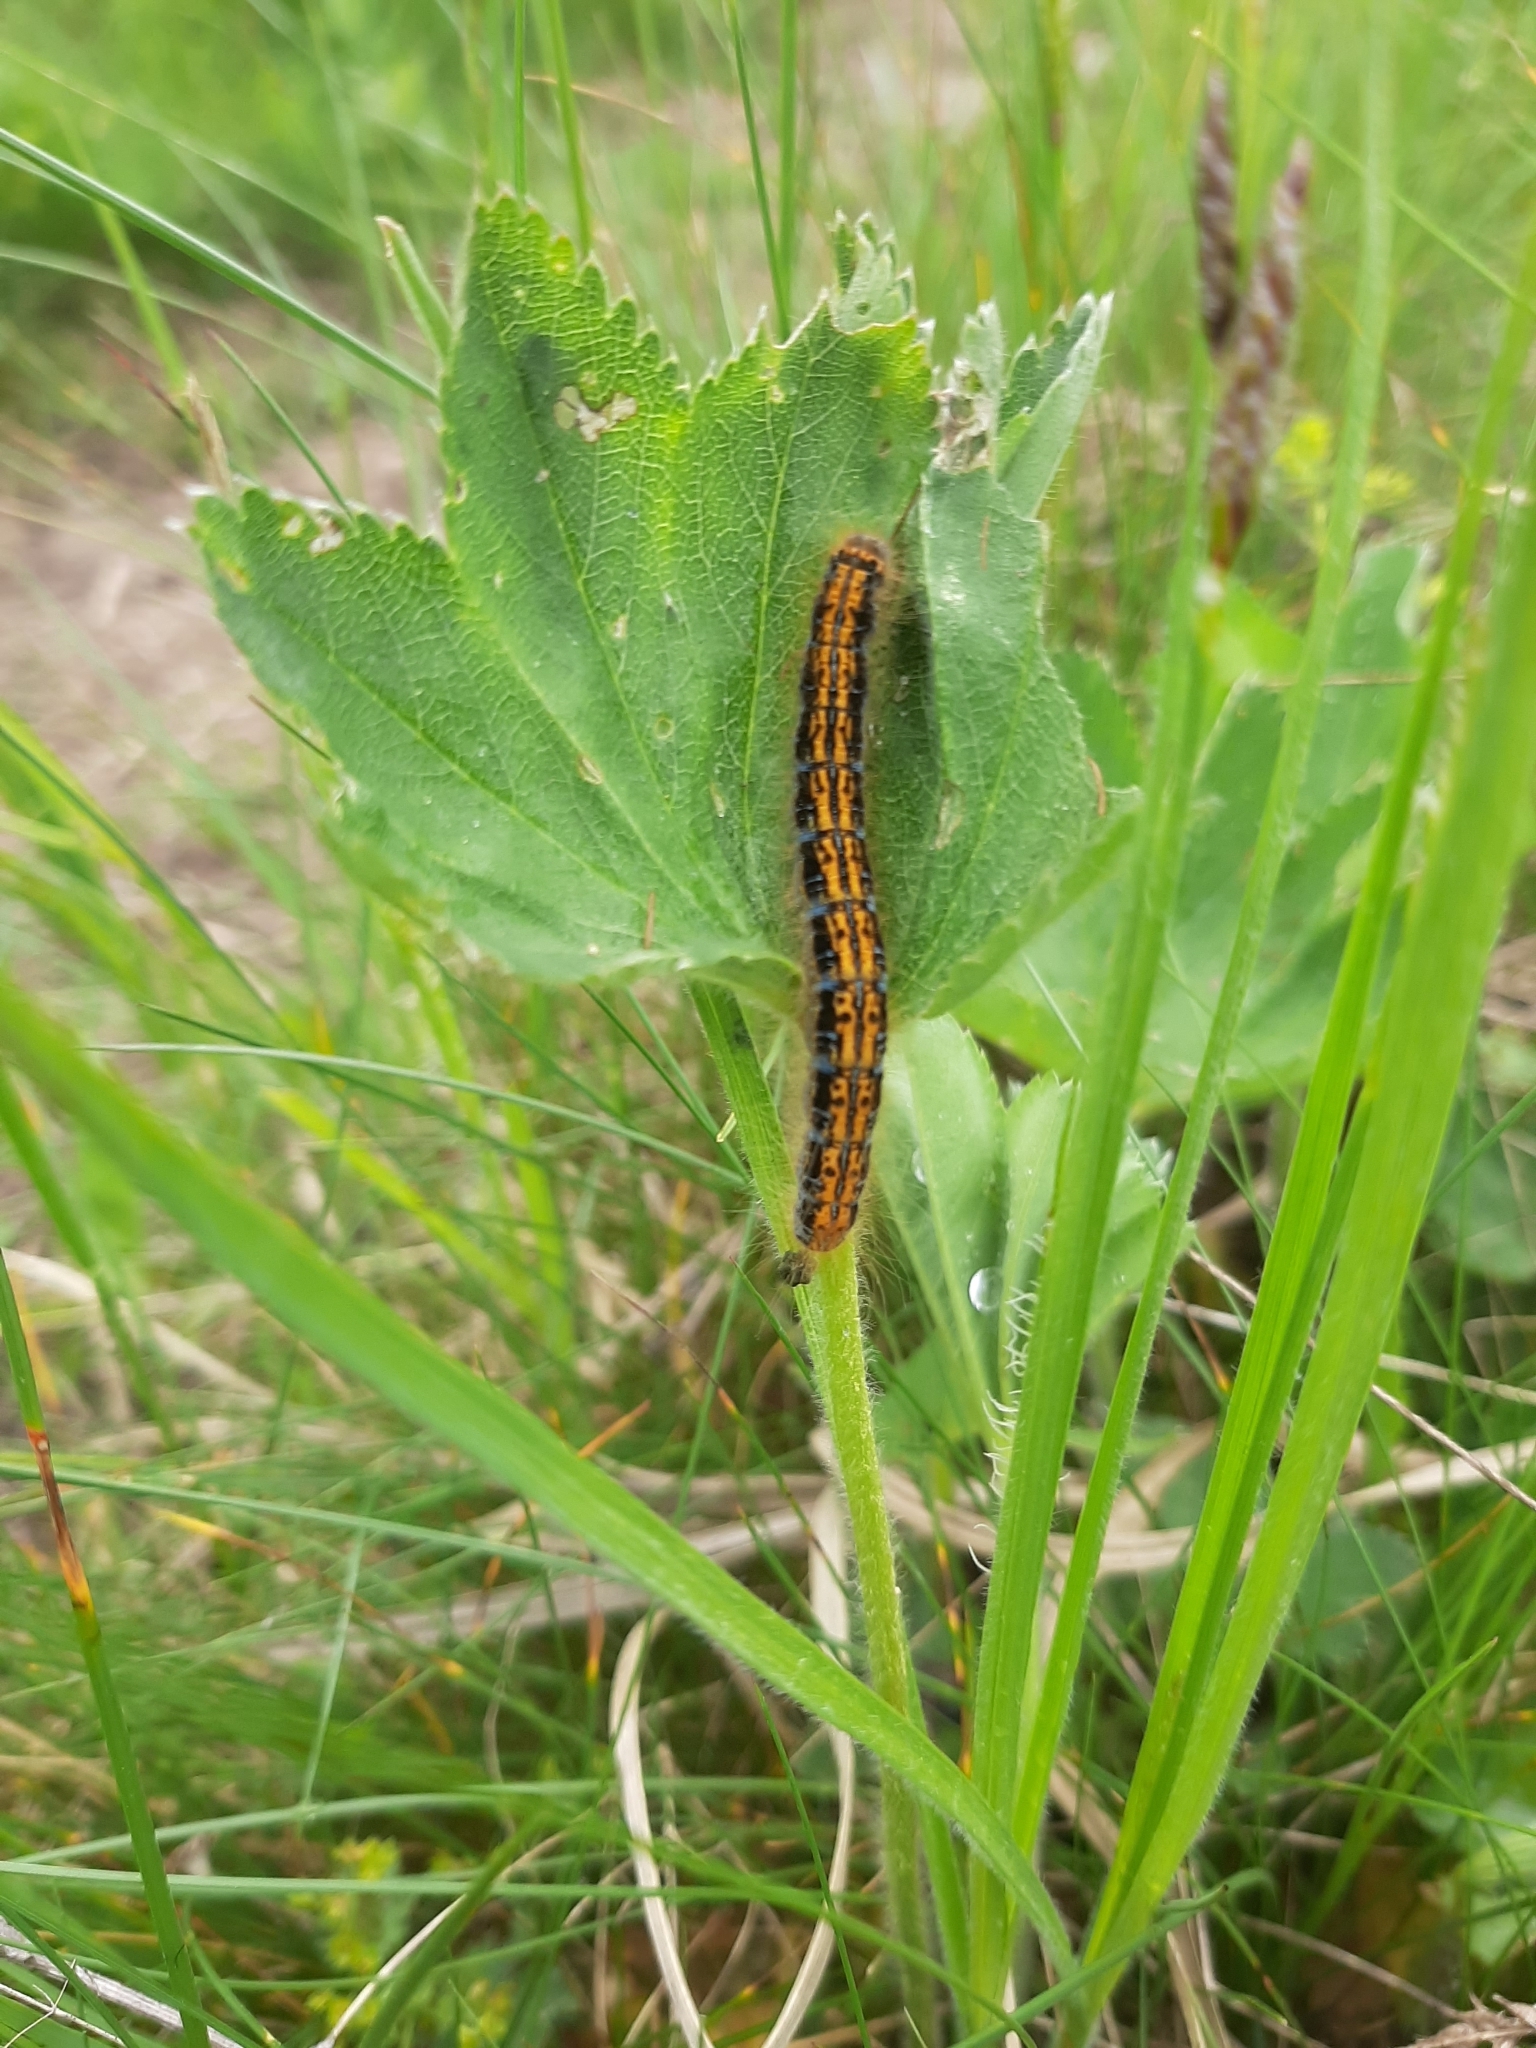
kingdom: Animalia
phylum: Arthropoda
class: Insecta
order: Lepidoptera
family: Lasiocampidae
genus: Malacosoma
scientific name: Malacosoma castrense
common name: Ground lackey
